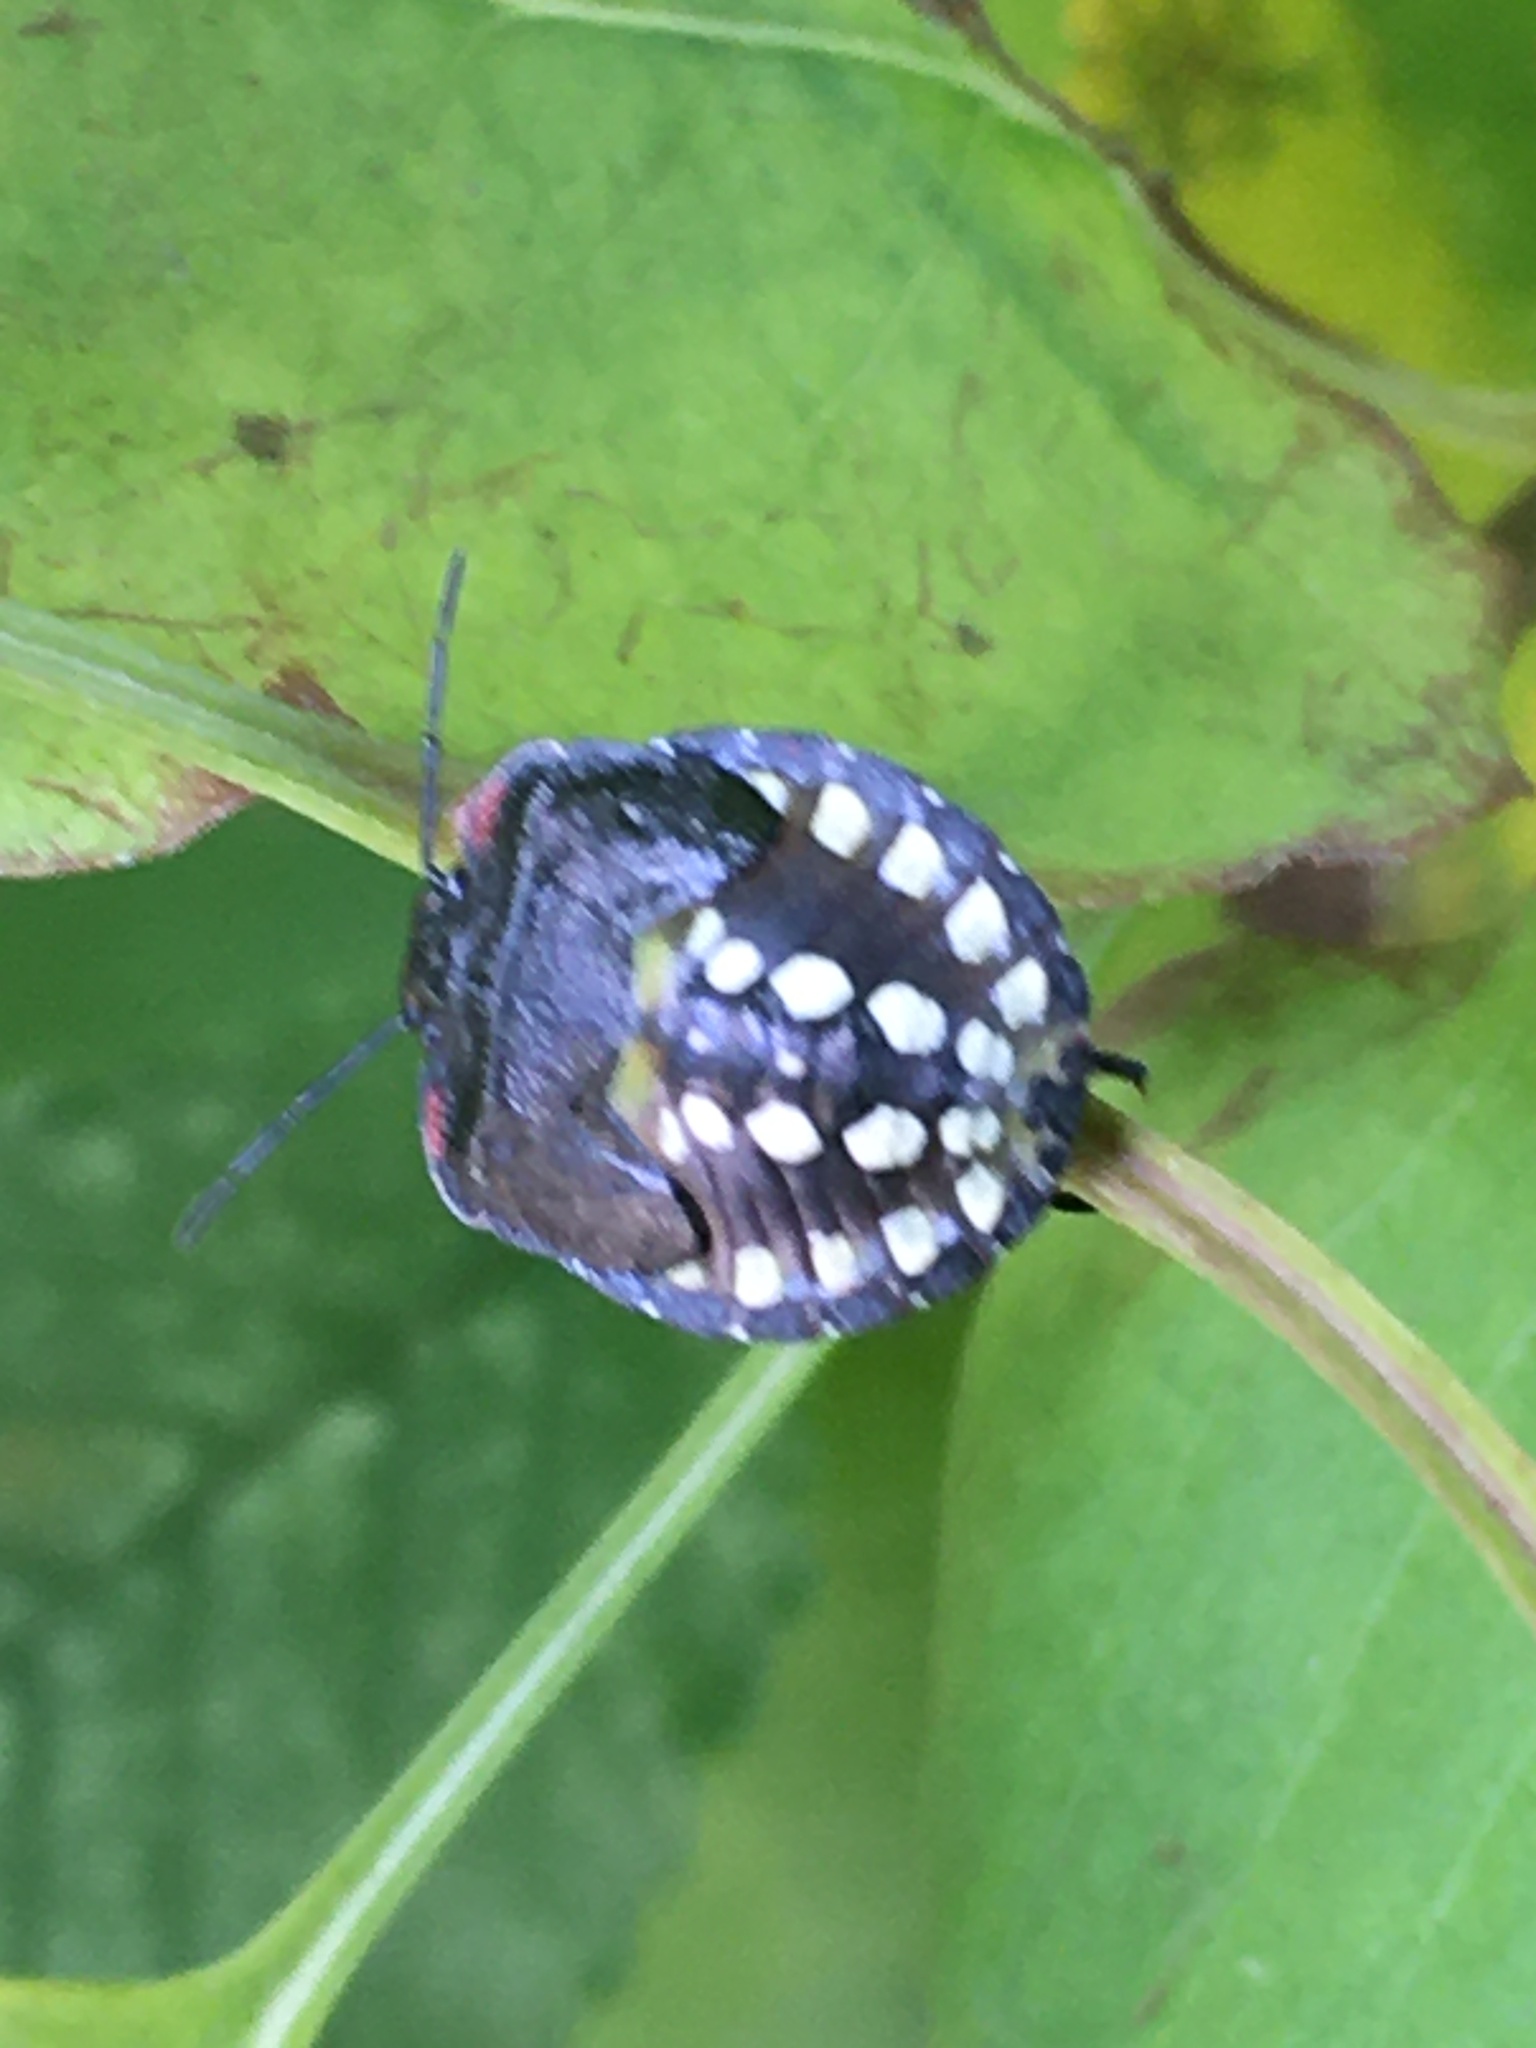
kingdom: Animalia
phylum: Arthropoda
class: Insecta
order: Hemiptera
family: Pentatomidae
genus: Nezara
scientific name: Nezara viridula
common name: Southern green stink bug
